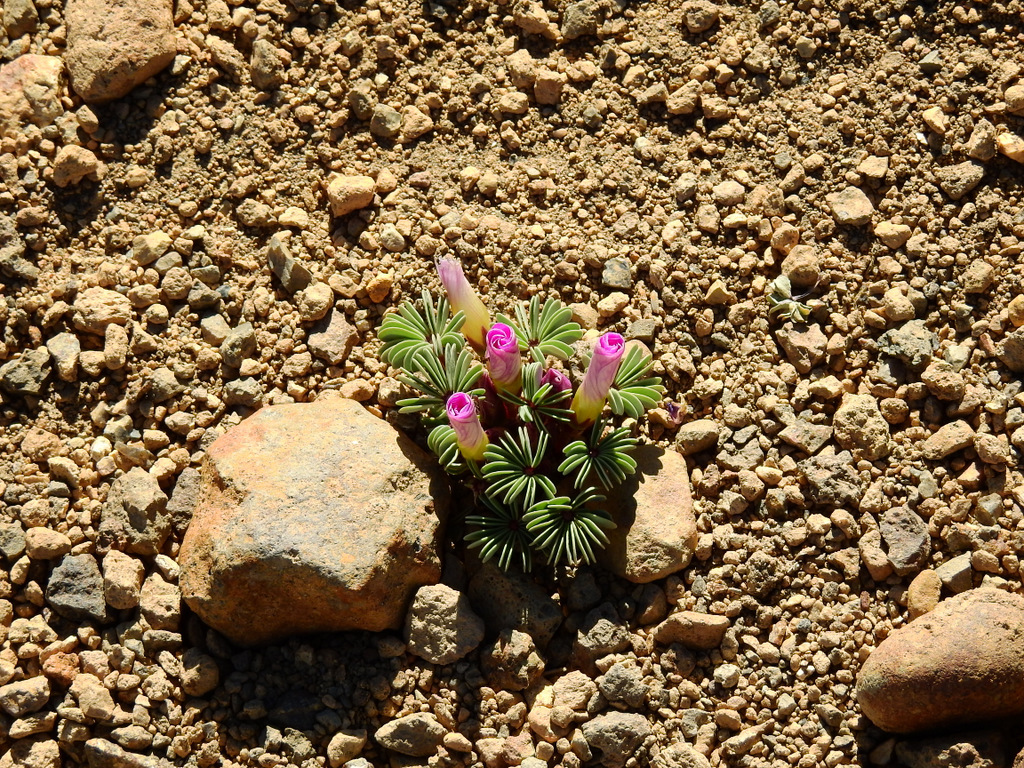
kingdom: Plantae
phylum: Tracheophyta
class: Magnoliopsida
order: Oxalidales
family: Oxalidaceae
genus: Oxalis
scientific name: Oxalis adenophylla
